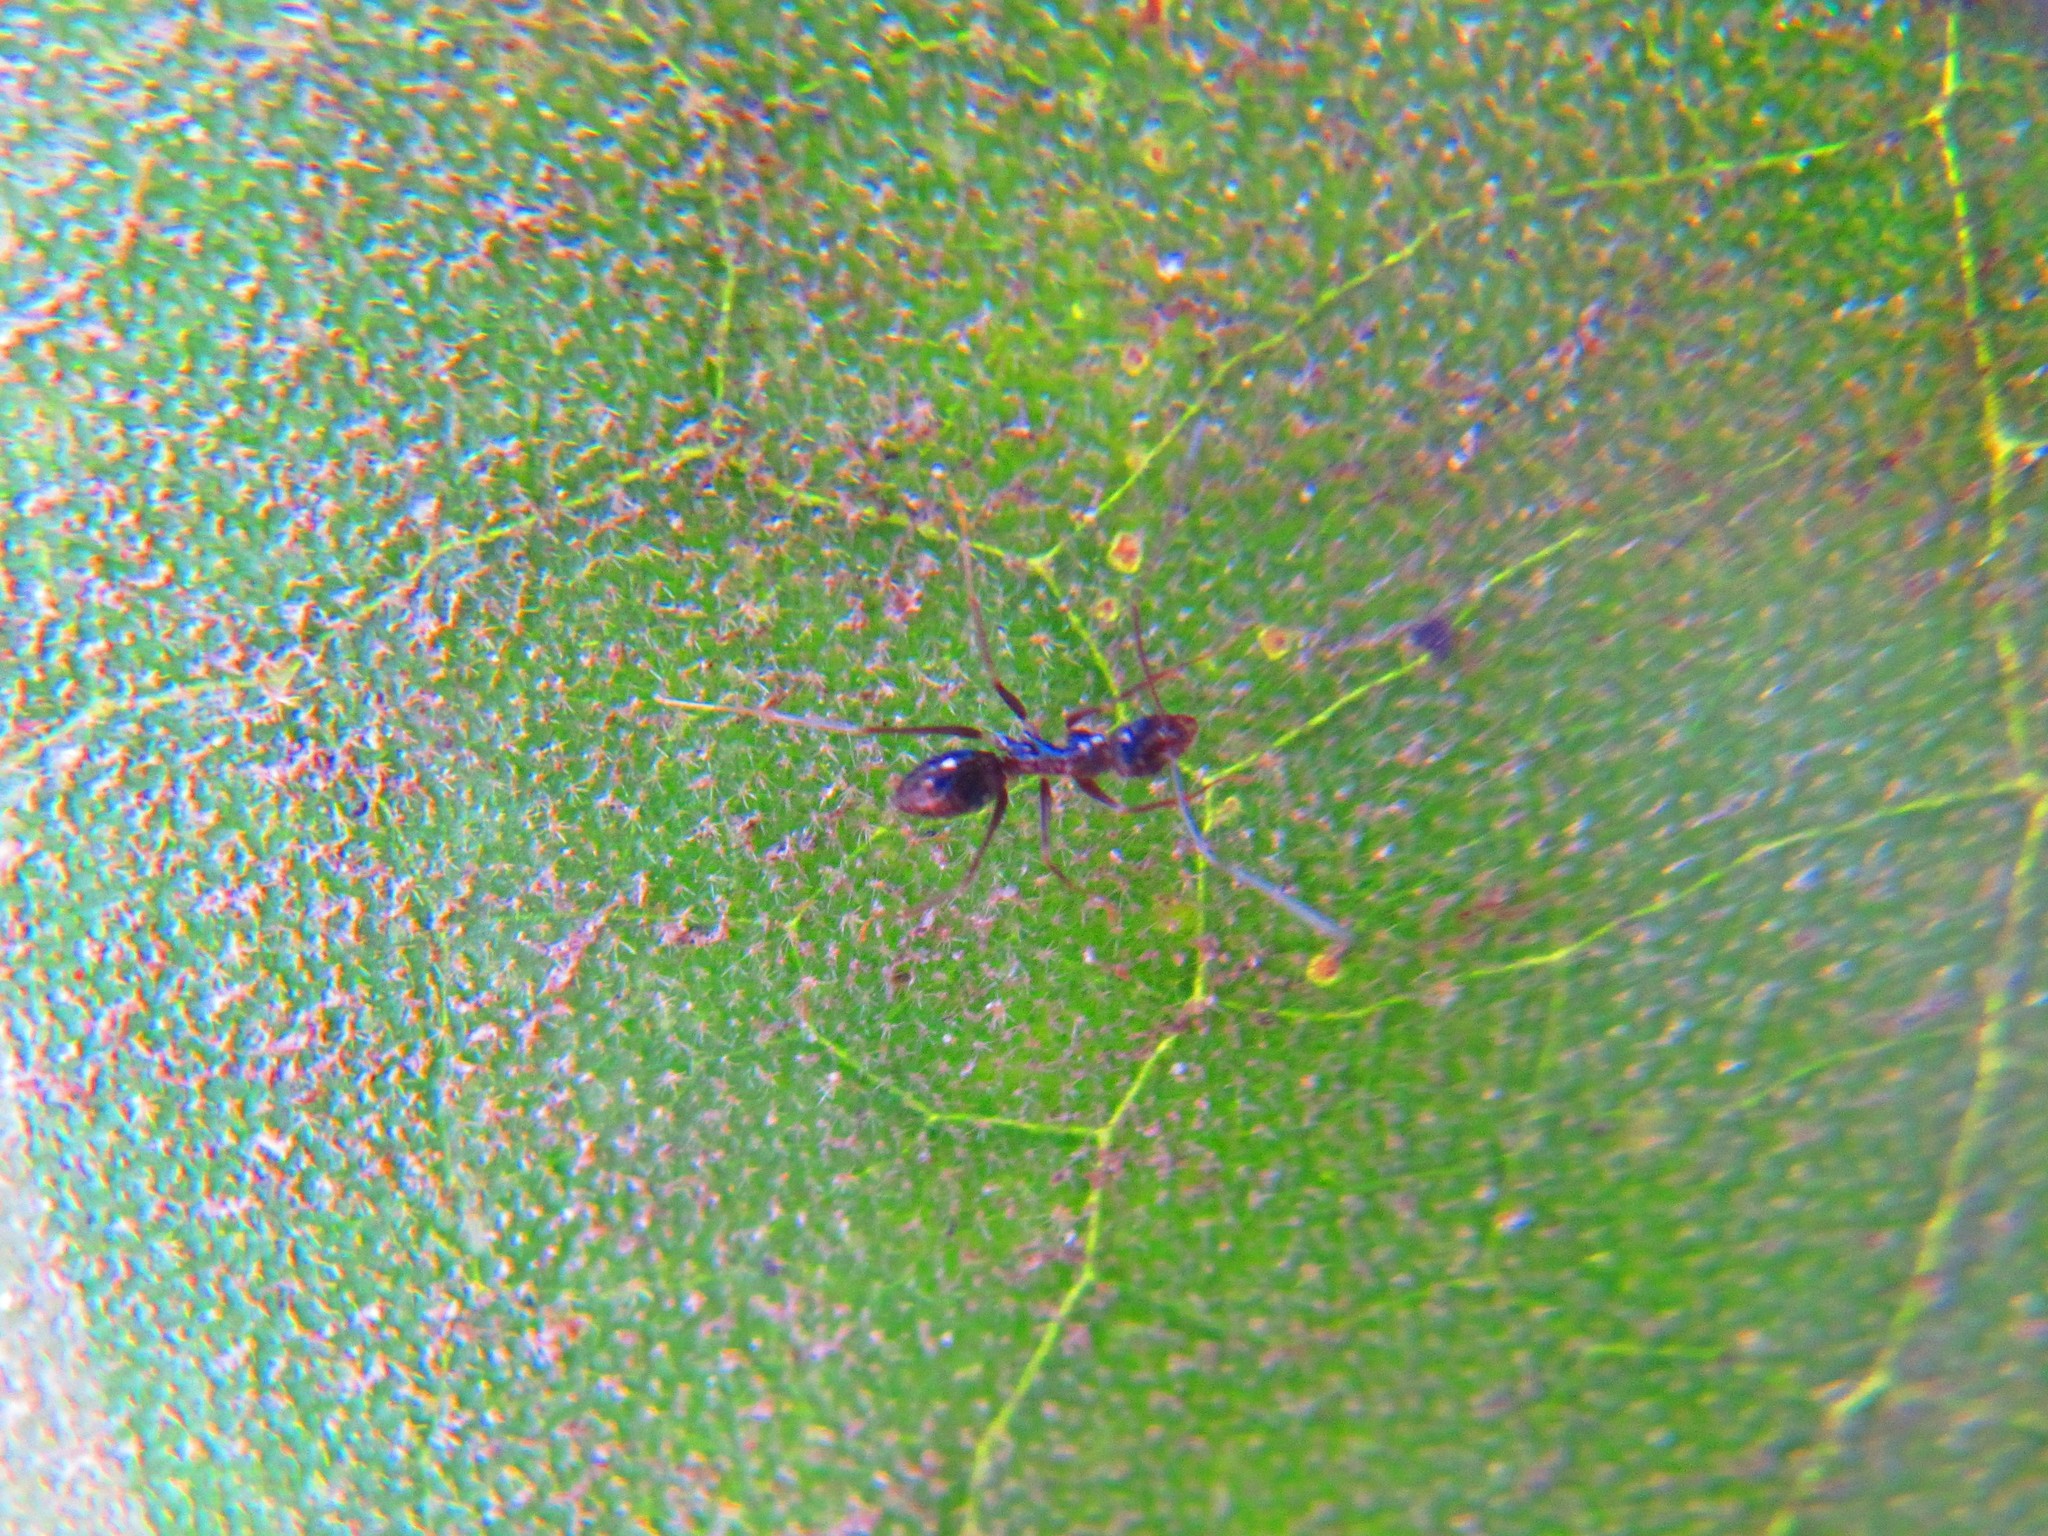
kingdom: Animalia
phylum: Arthropoda
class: Insecta
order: Hymenoptera
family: Formicidae
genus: Paratrechina
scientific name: Paratrechina longicornis
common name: Longhorned crazy ant
